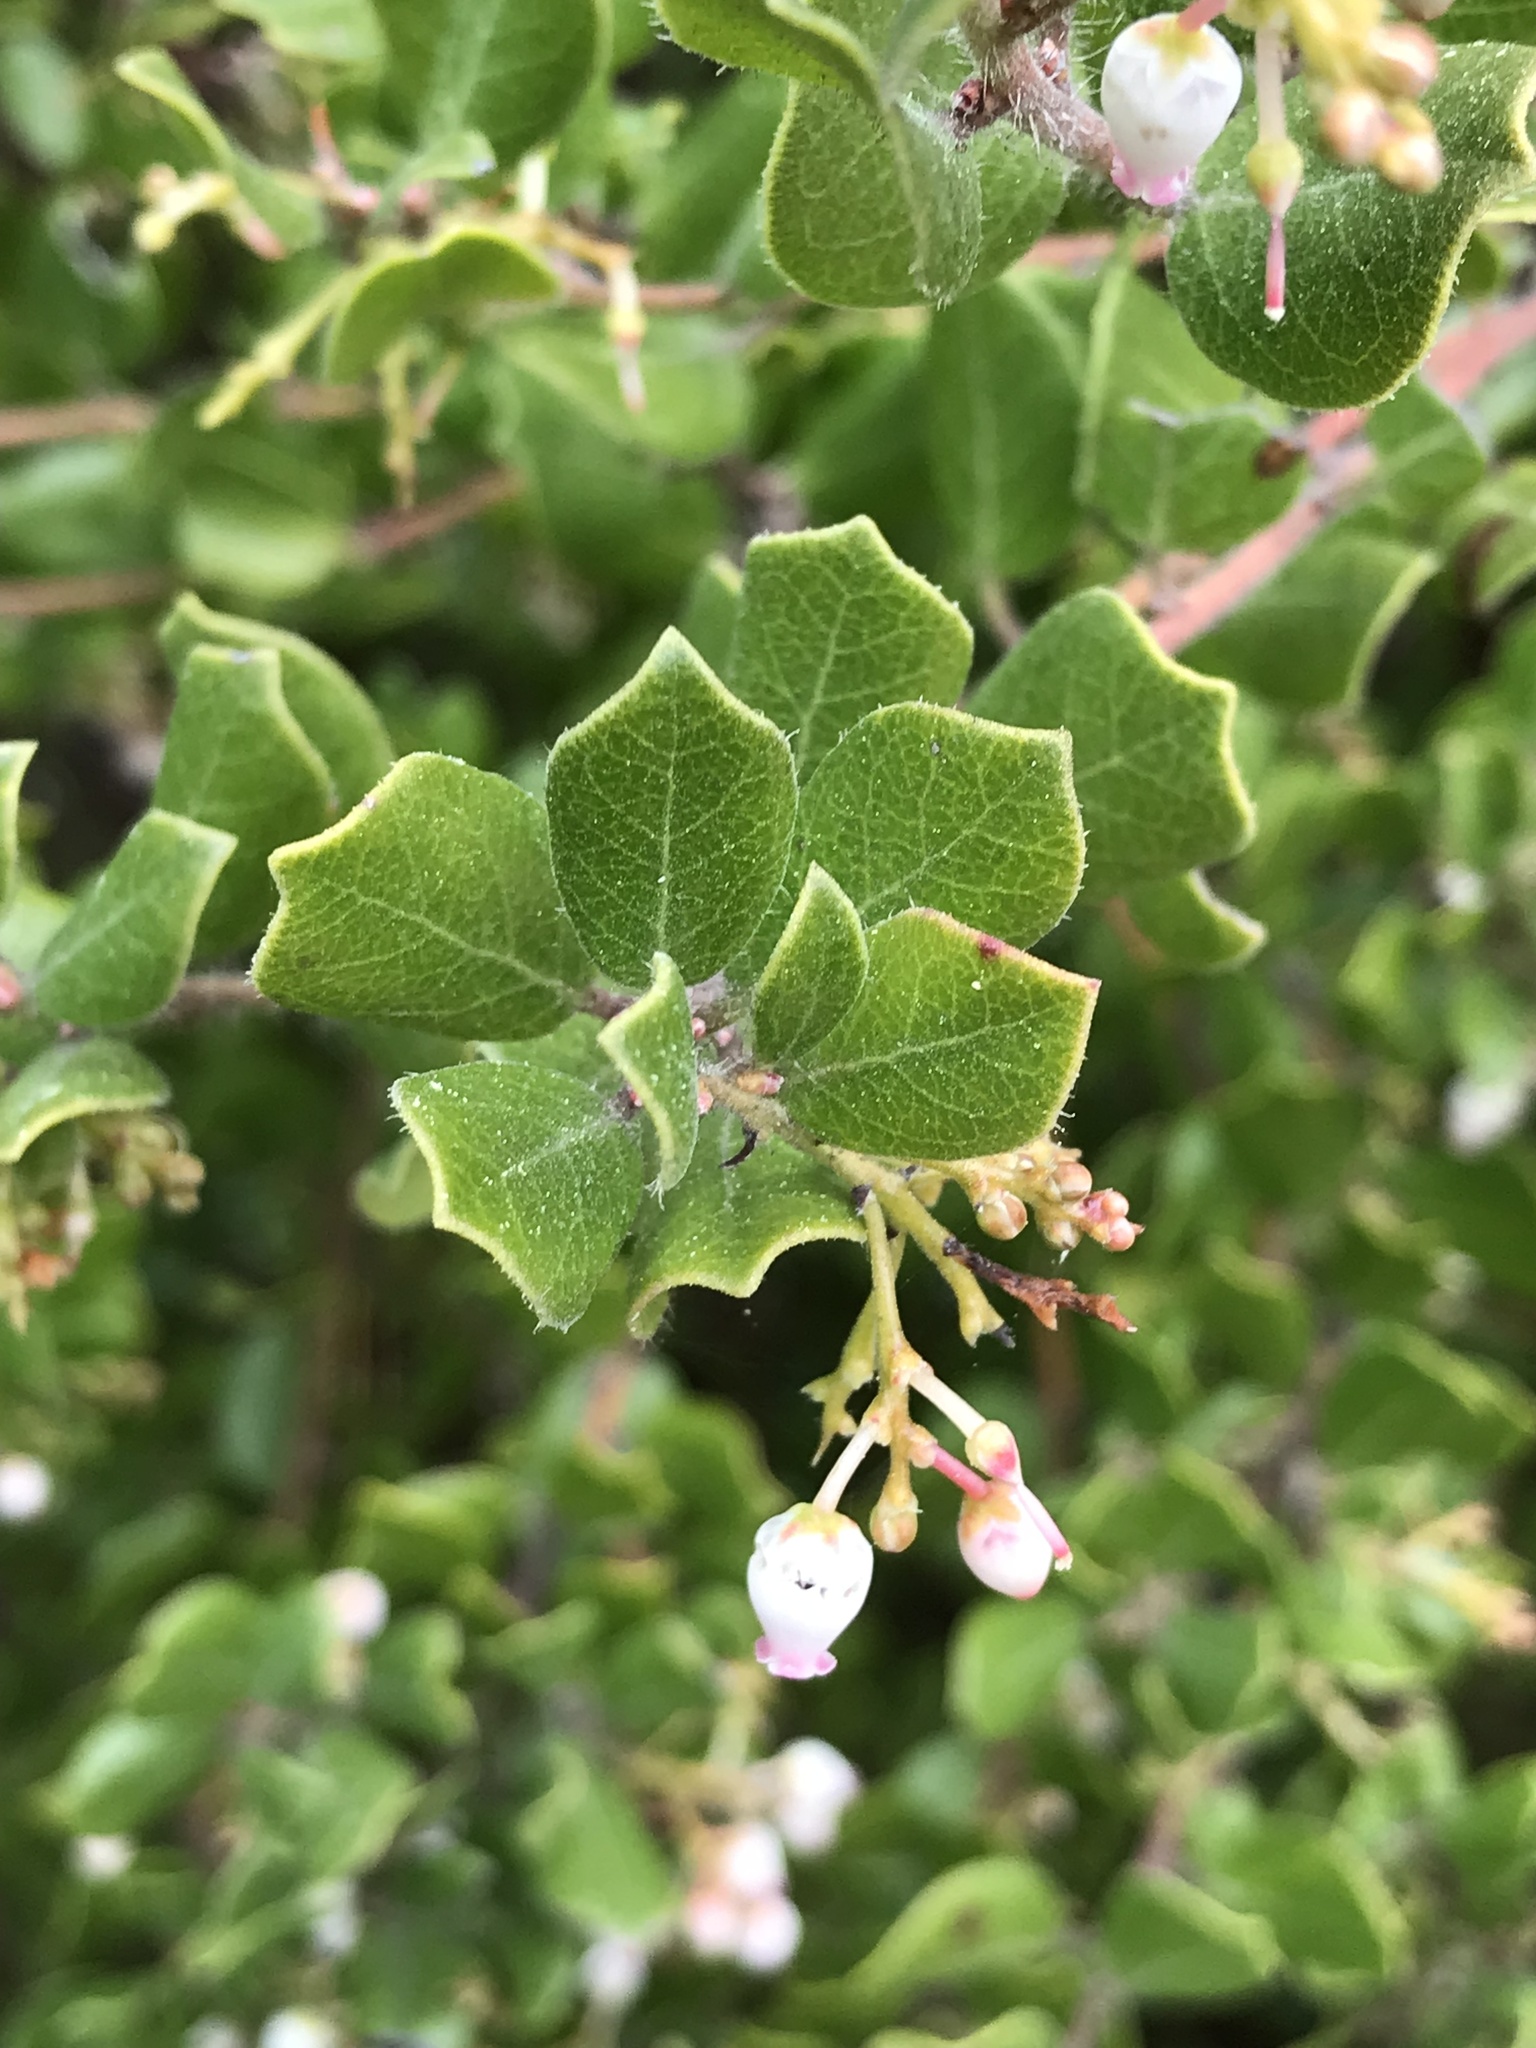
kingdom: Plantae
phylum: Tracheophyta
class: Magnoliopsida
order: Ericales
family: Ericaceae
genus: Arctostaphylos
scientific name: Arctostaphylos nummularia
